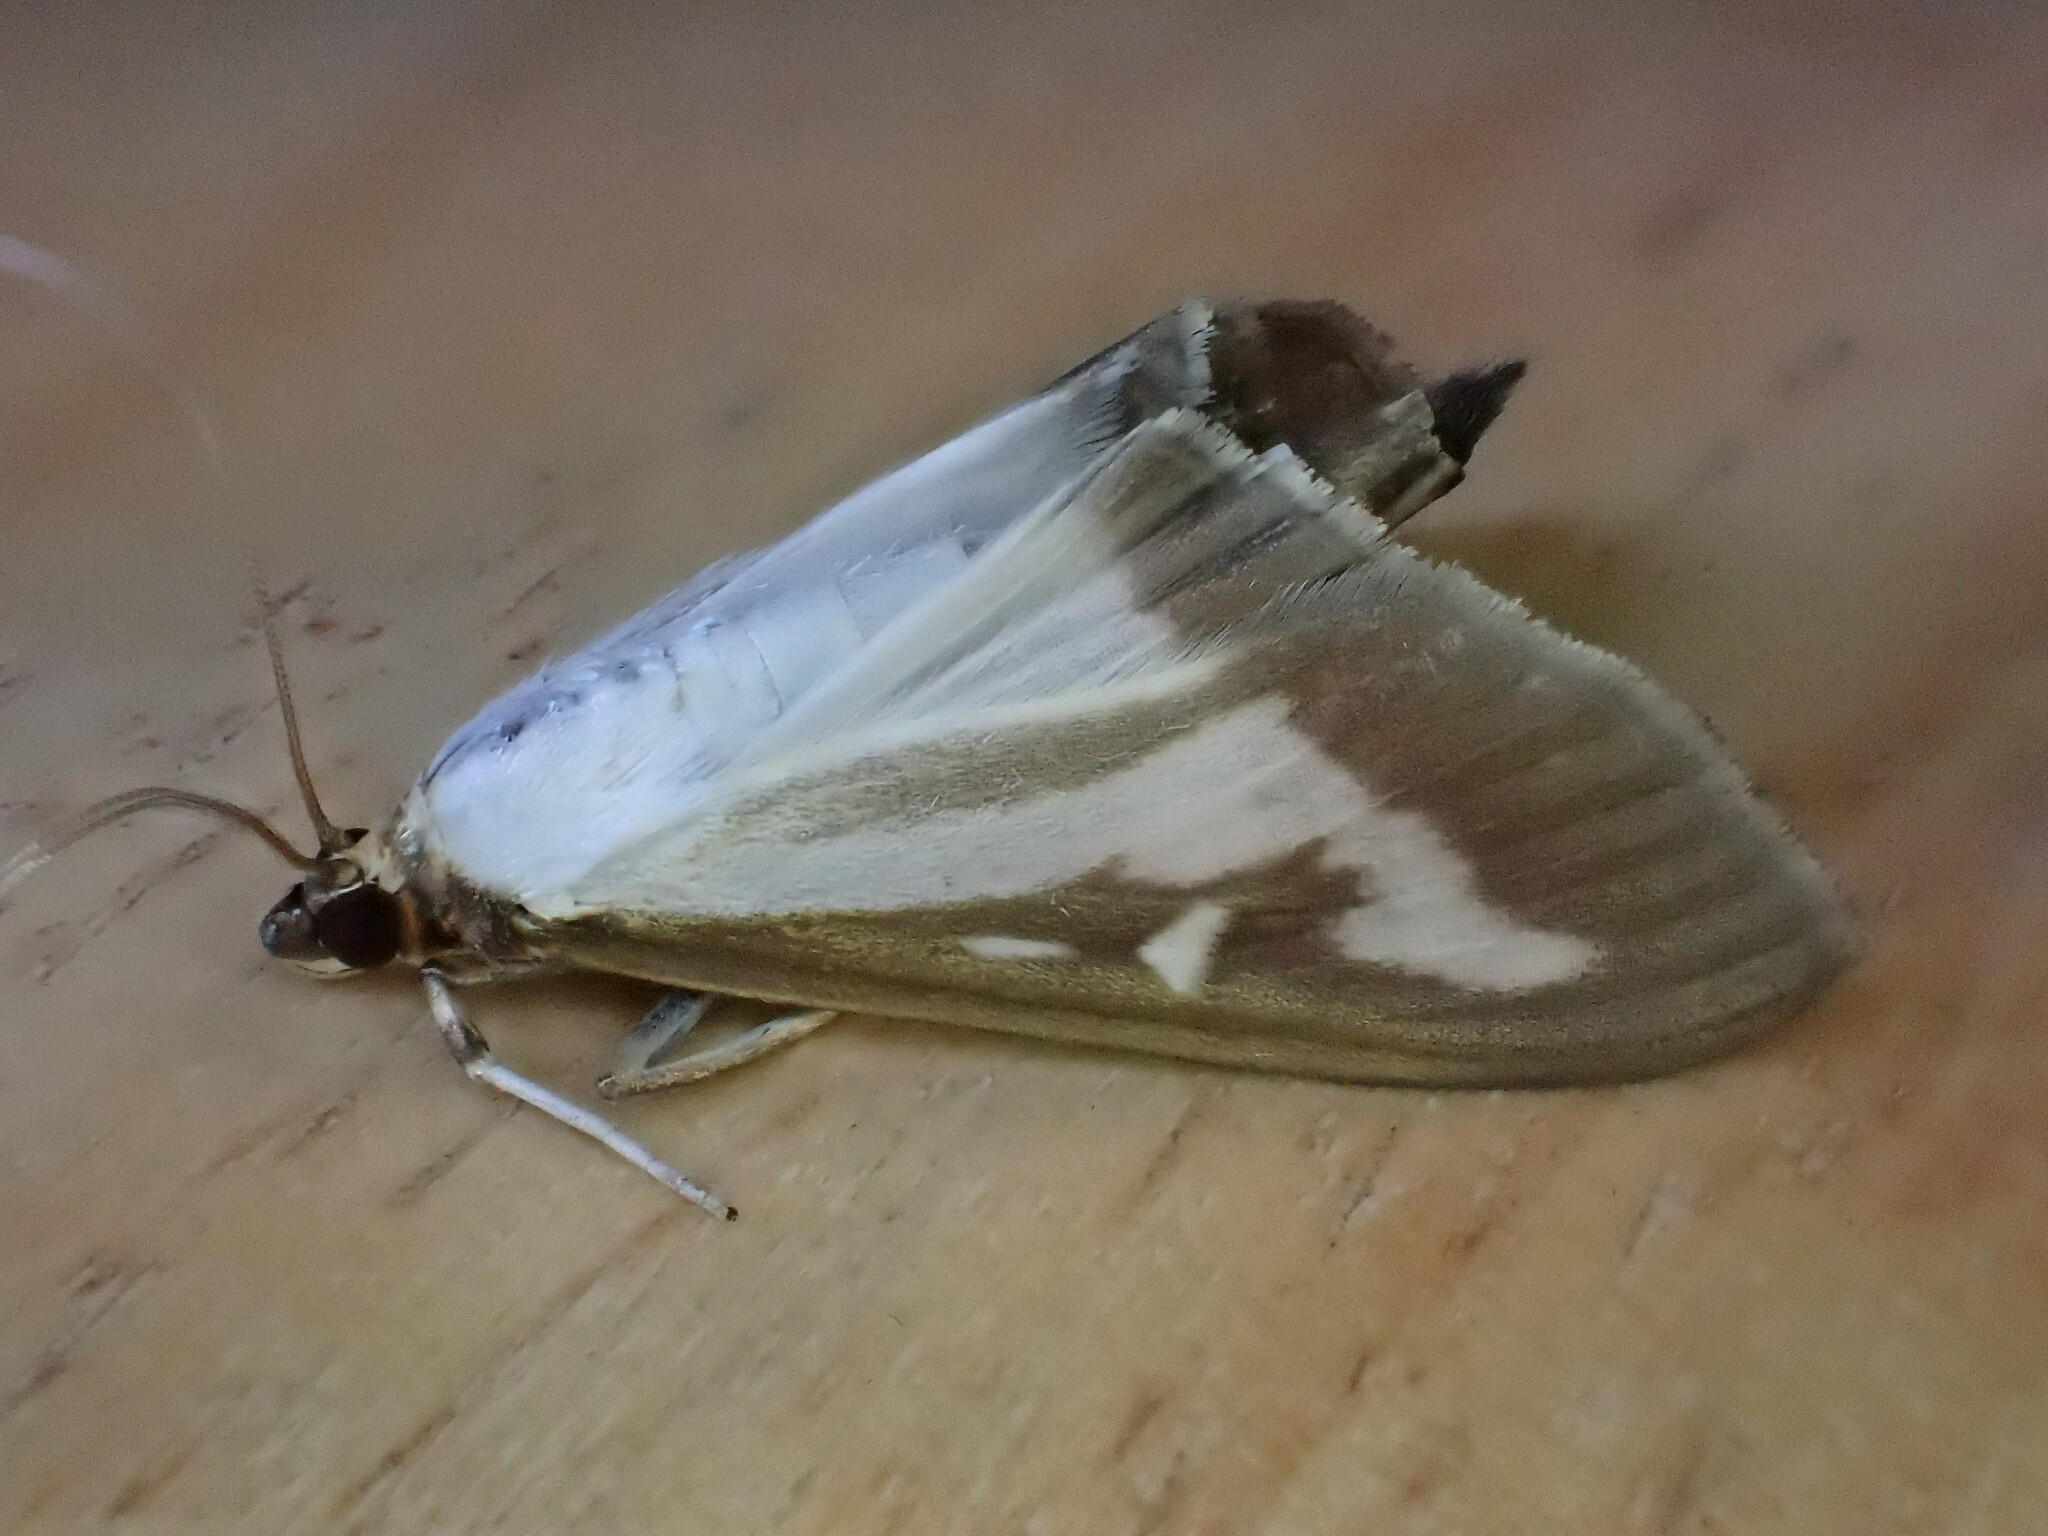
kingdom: Animalia
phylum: Arthropoda
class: Insecta
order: Lepidoptera
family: Crambidae
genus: Cydalima
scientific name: Cydalima perspectalis
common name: Box tree moth
